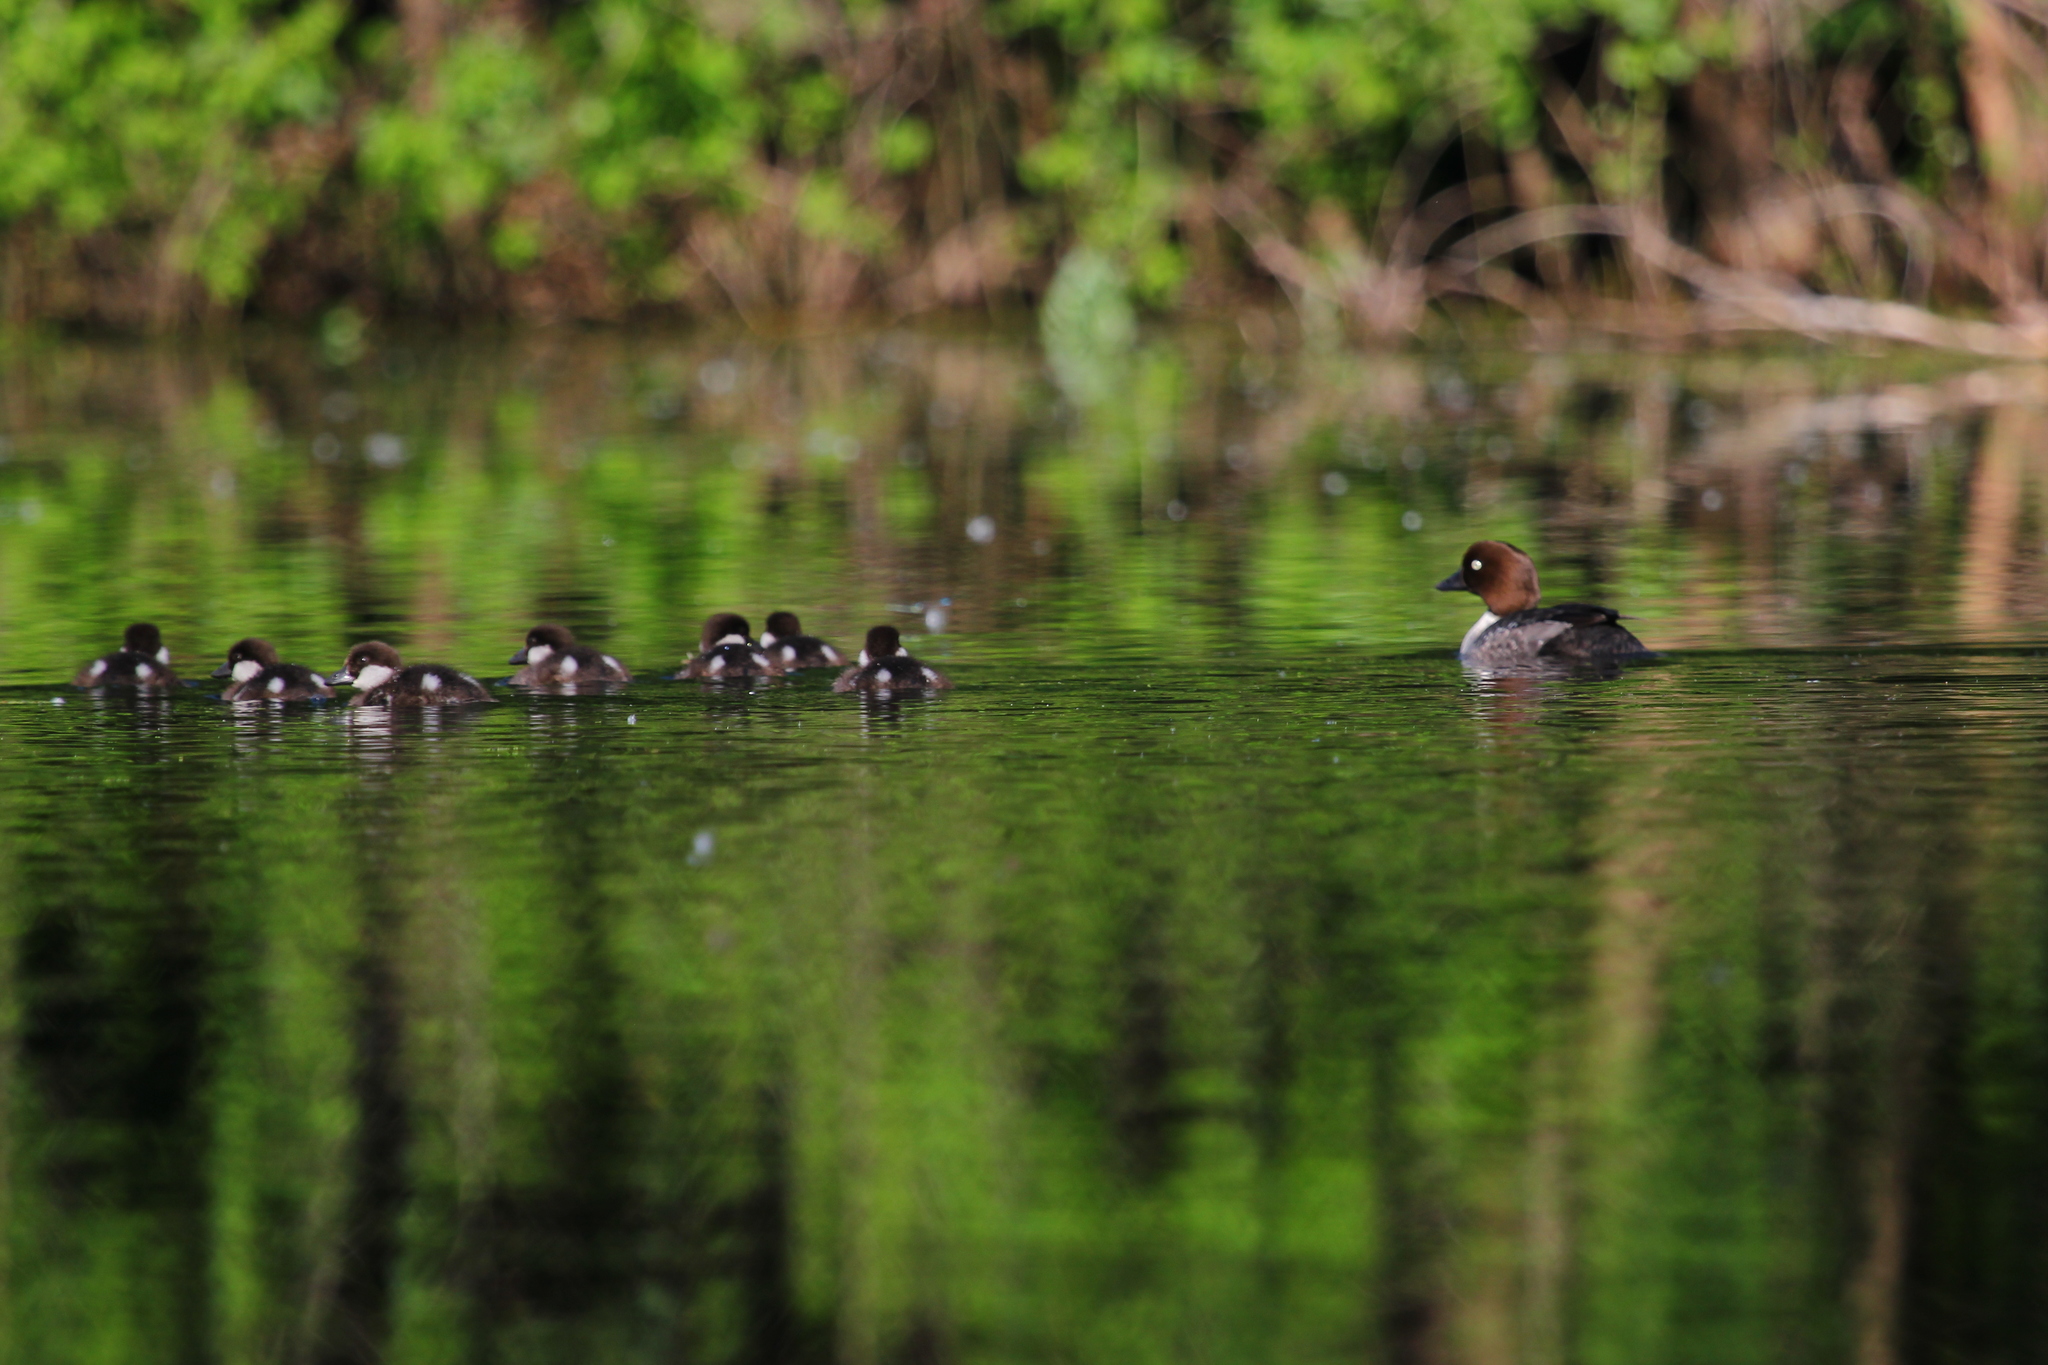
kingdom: Animalia
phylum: Chordata
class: Aves
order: Anseriformes
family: Anatidae
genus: Bucephala
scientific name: Bucephala clangula
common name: Common goldeneye
